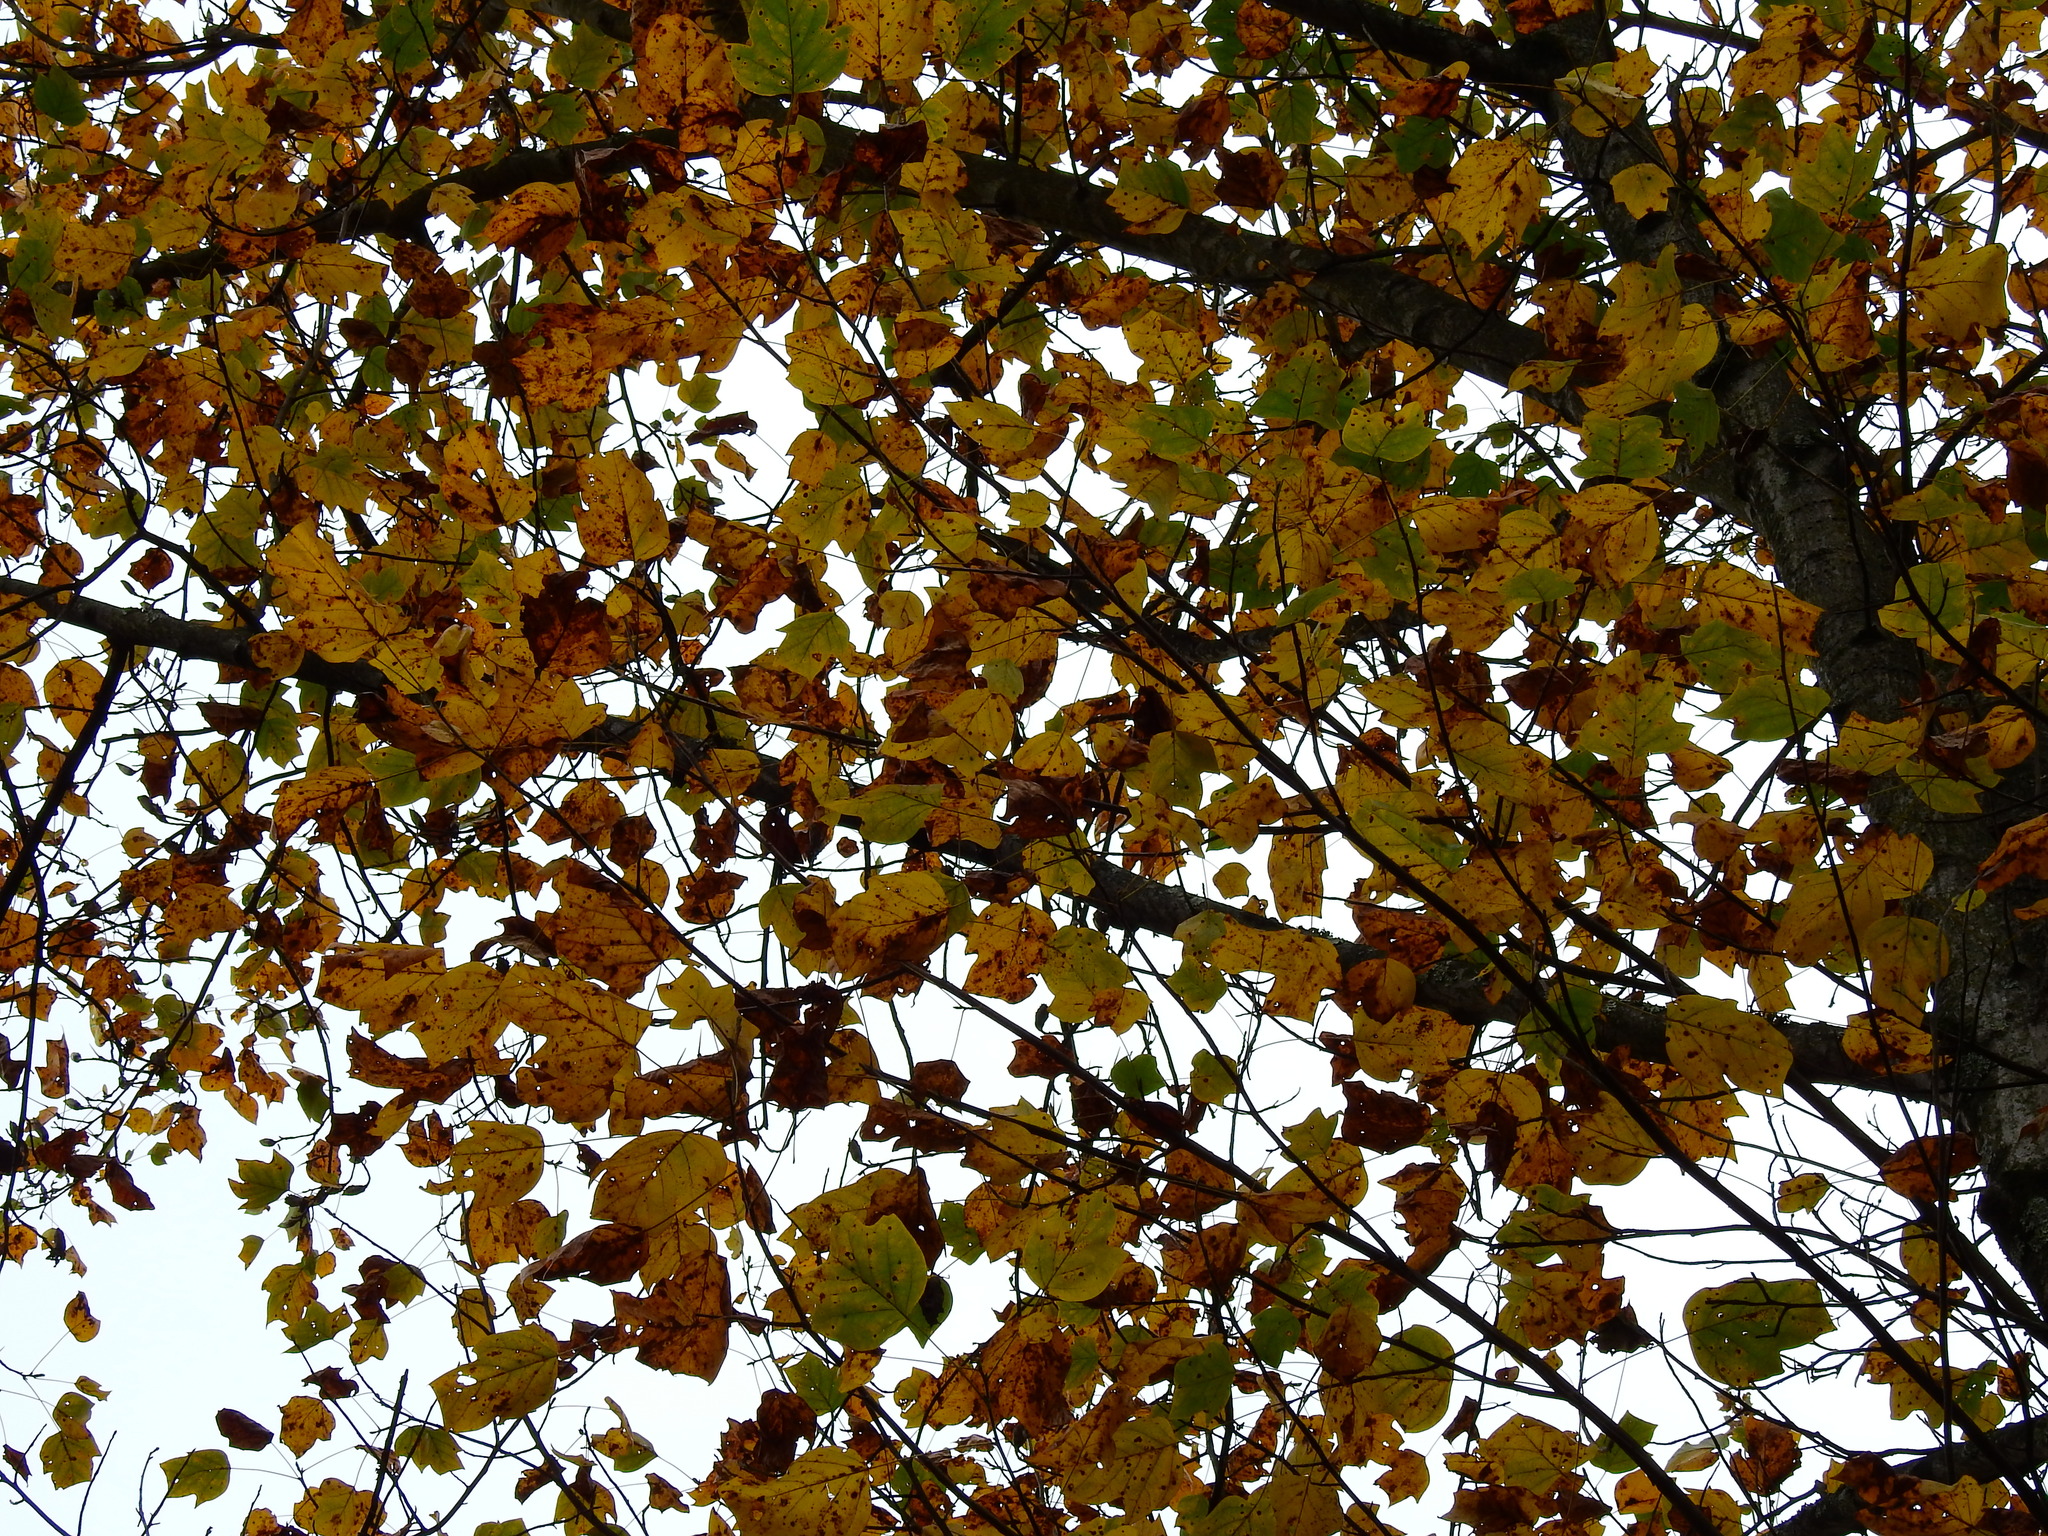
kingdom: Plantae
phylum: Tracheophyta
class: Magnoliopsida
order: Magnoliales
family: Magnoliaceae
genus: Liriodendron
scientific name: Liriodendron tulipifera
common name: Tulip tree
